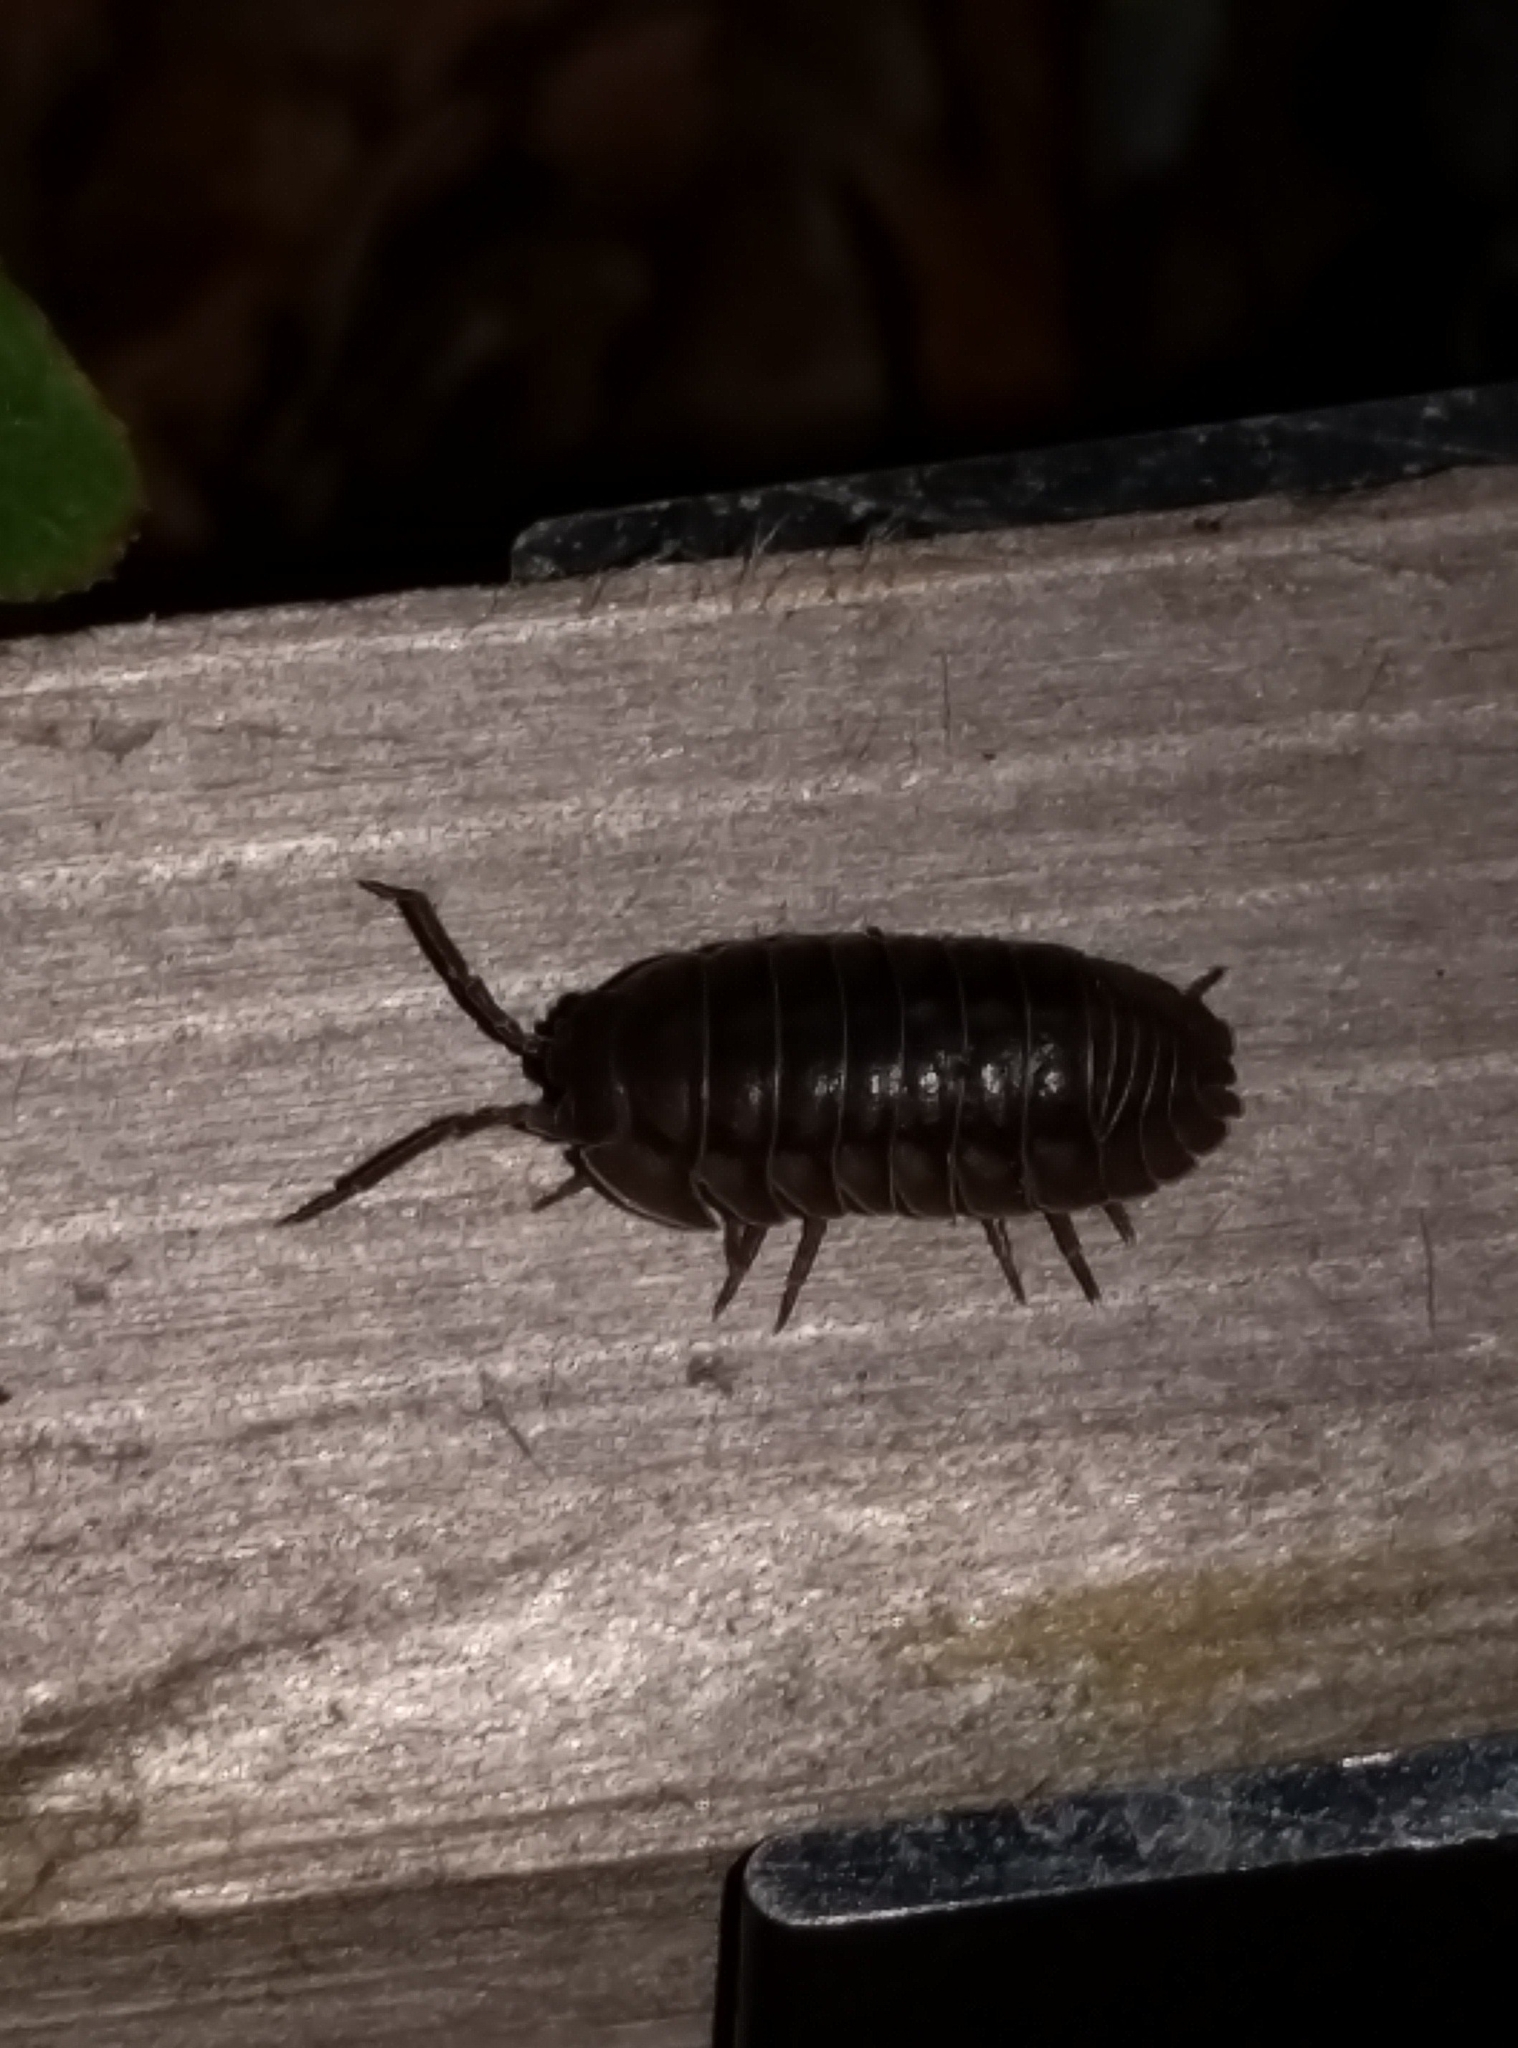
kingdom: Animalia
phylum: Arthropoda
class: Malacostraca
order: Isopoda
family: Armadillidiidae
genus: Armadillidium
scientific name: Armadillidium nasatum
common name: Isopod
